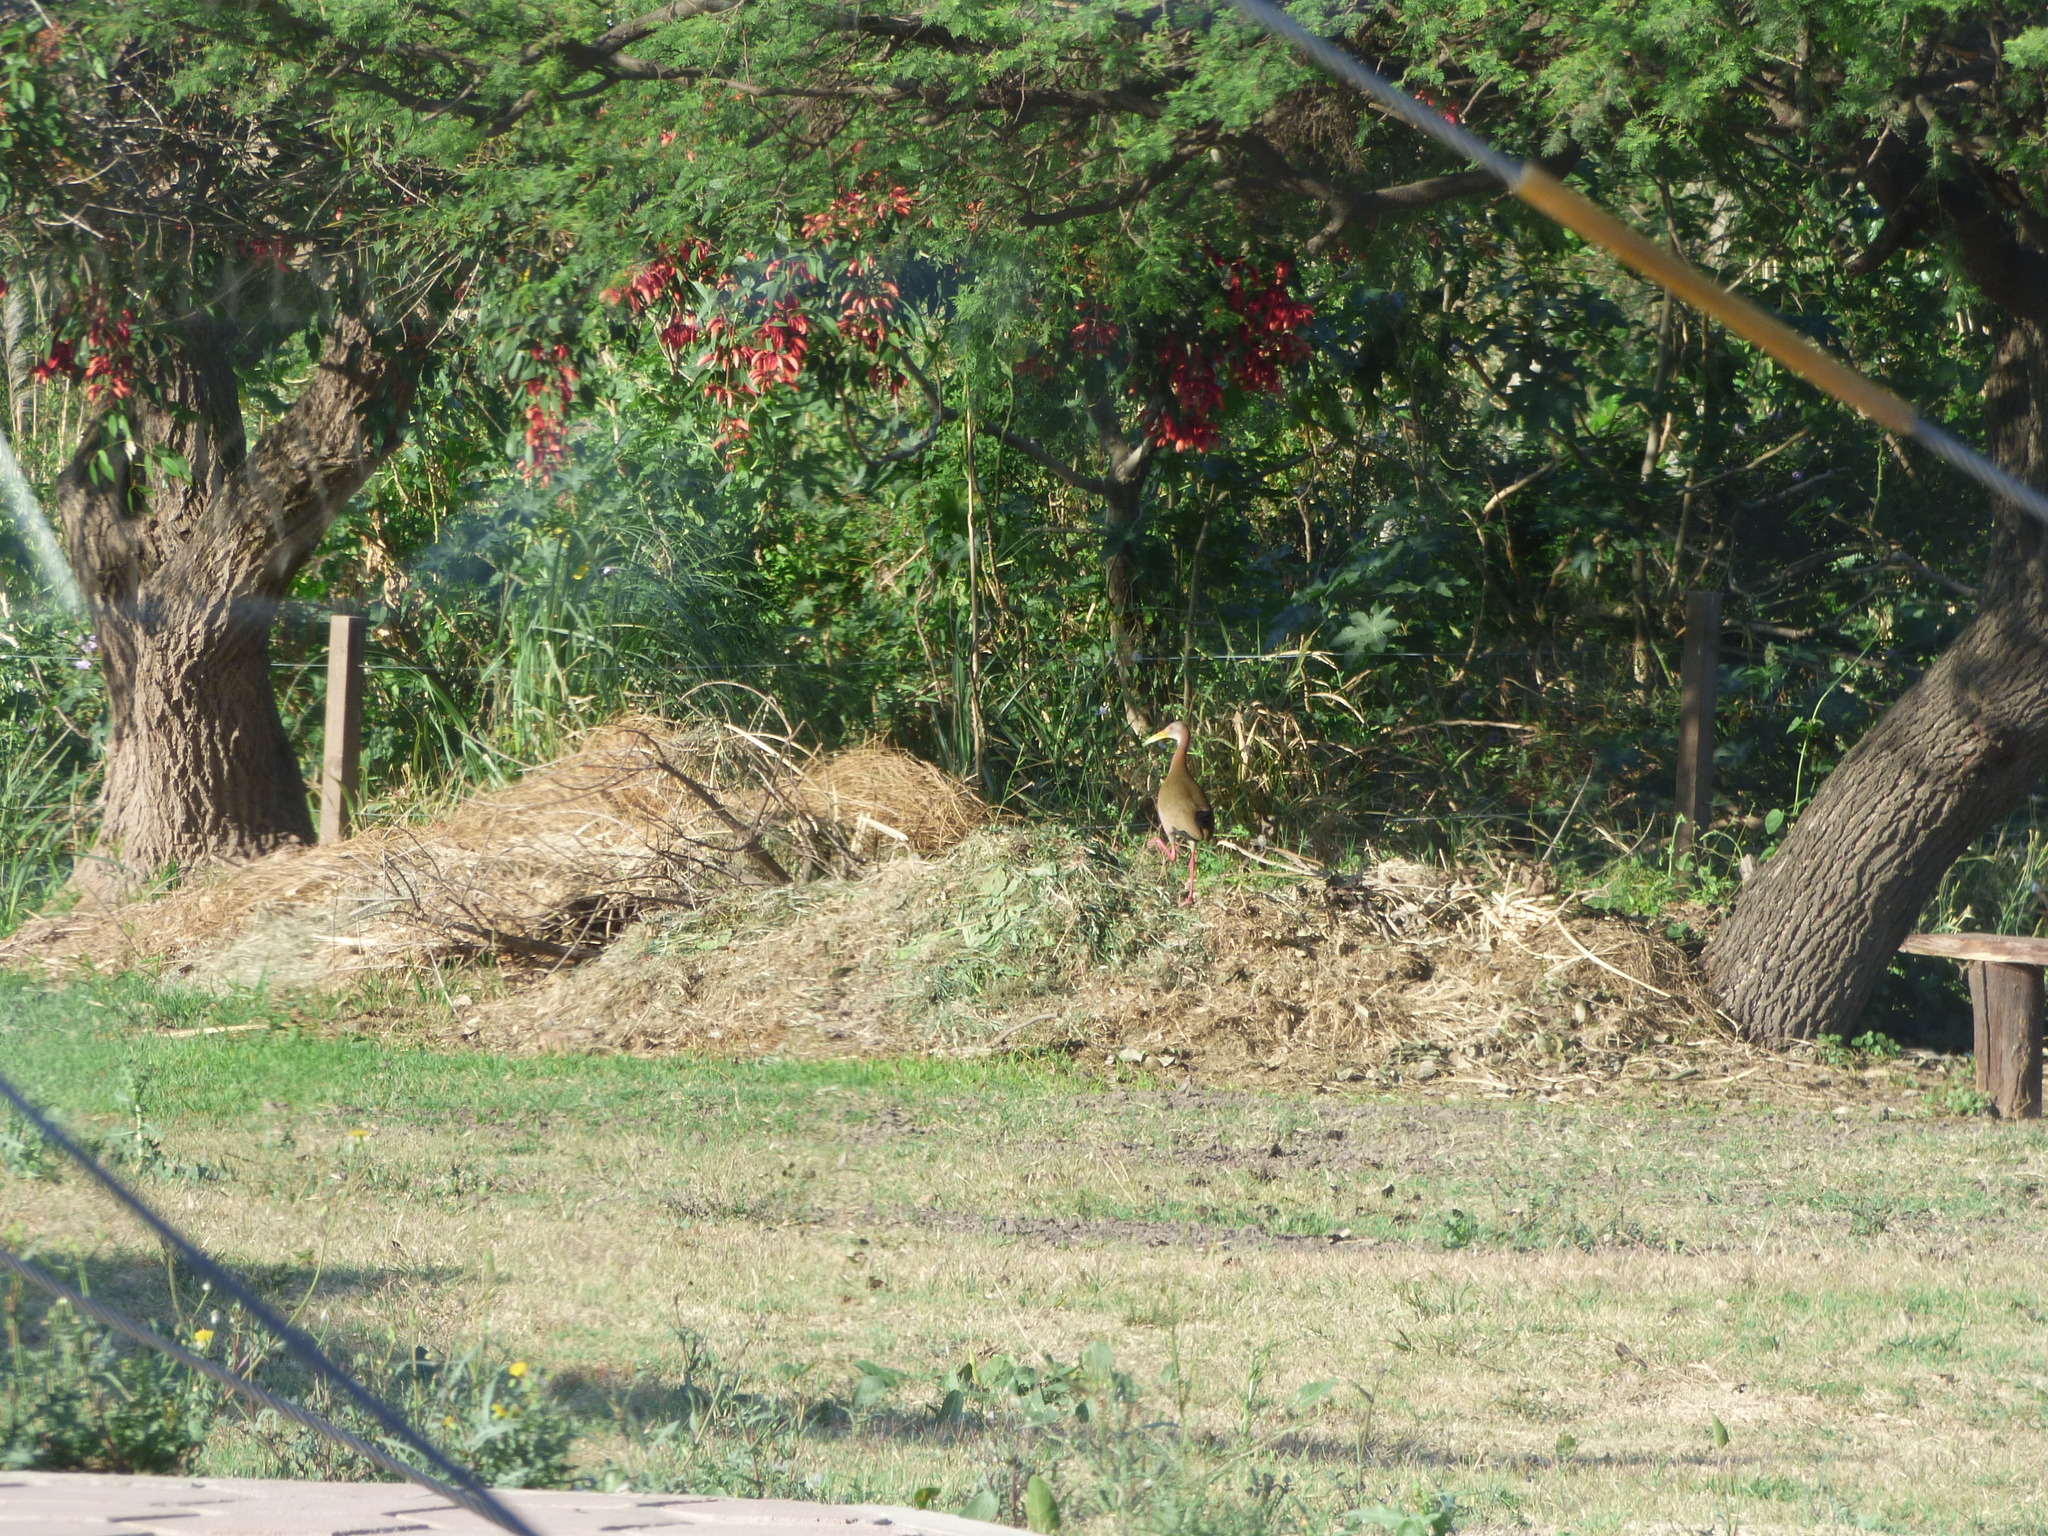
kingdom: Animalia
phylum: Chordata
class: Aves
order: Gruiformes
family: Rallidae
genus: Aramides
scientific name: Aramides ypecaha
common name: Giant wood rail
